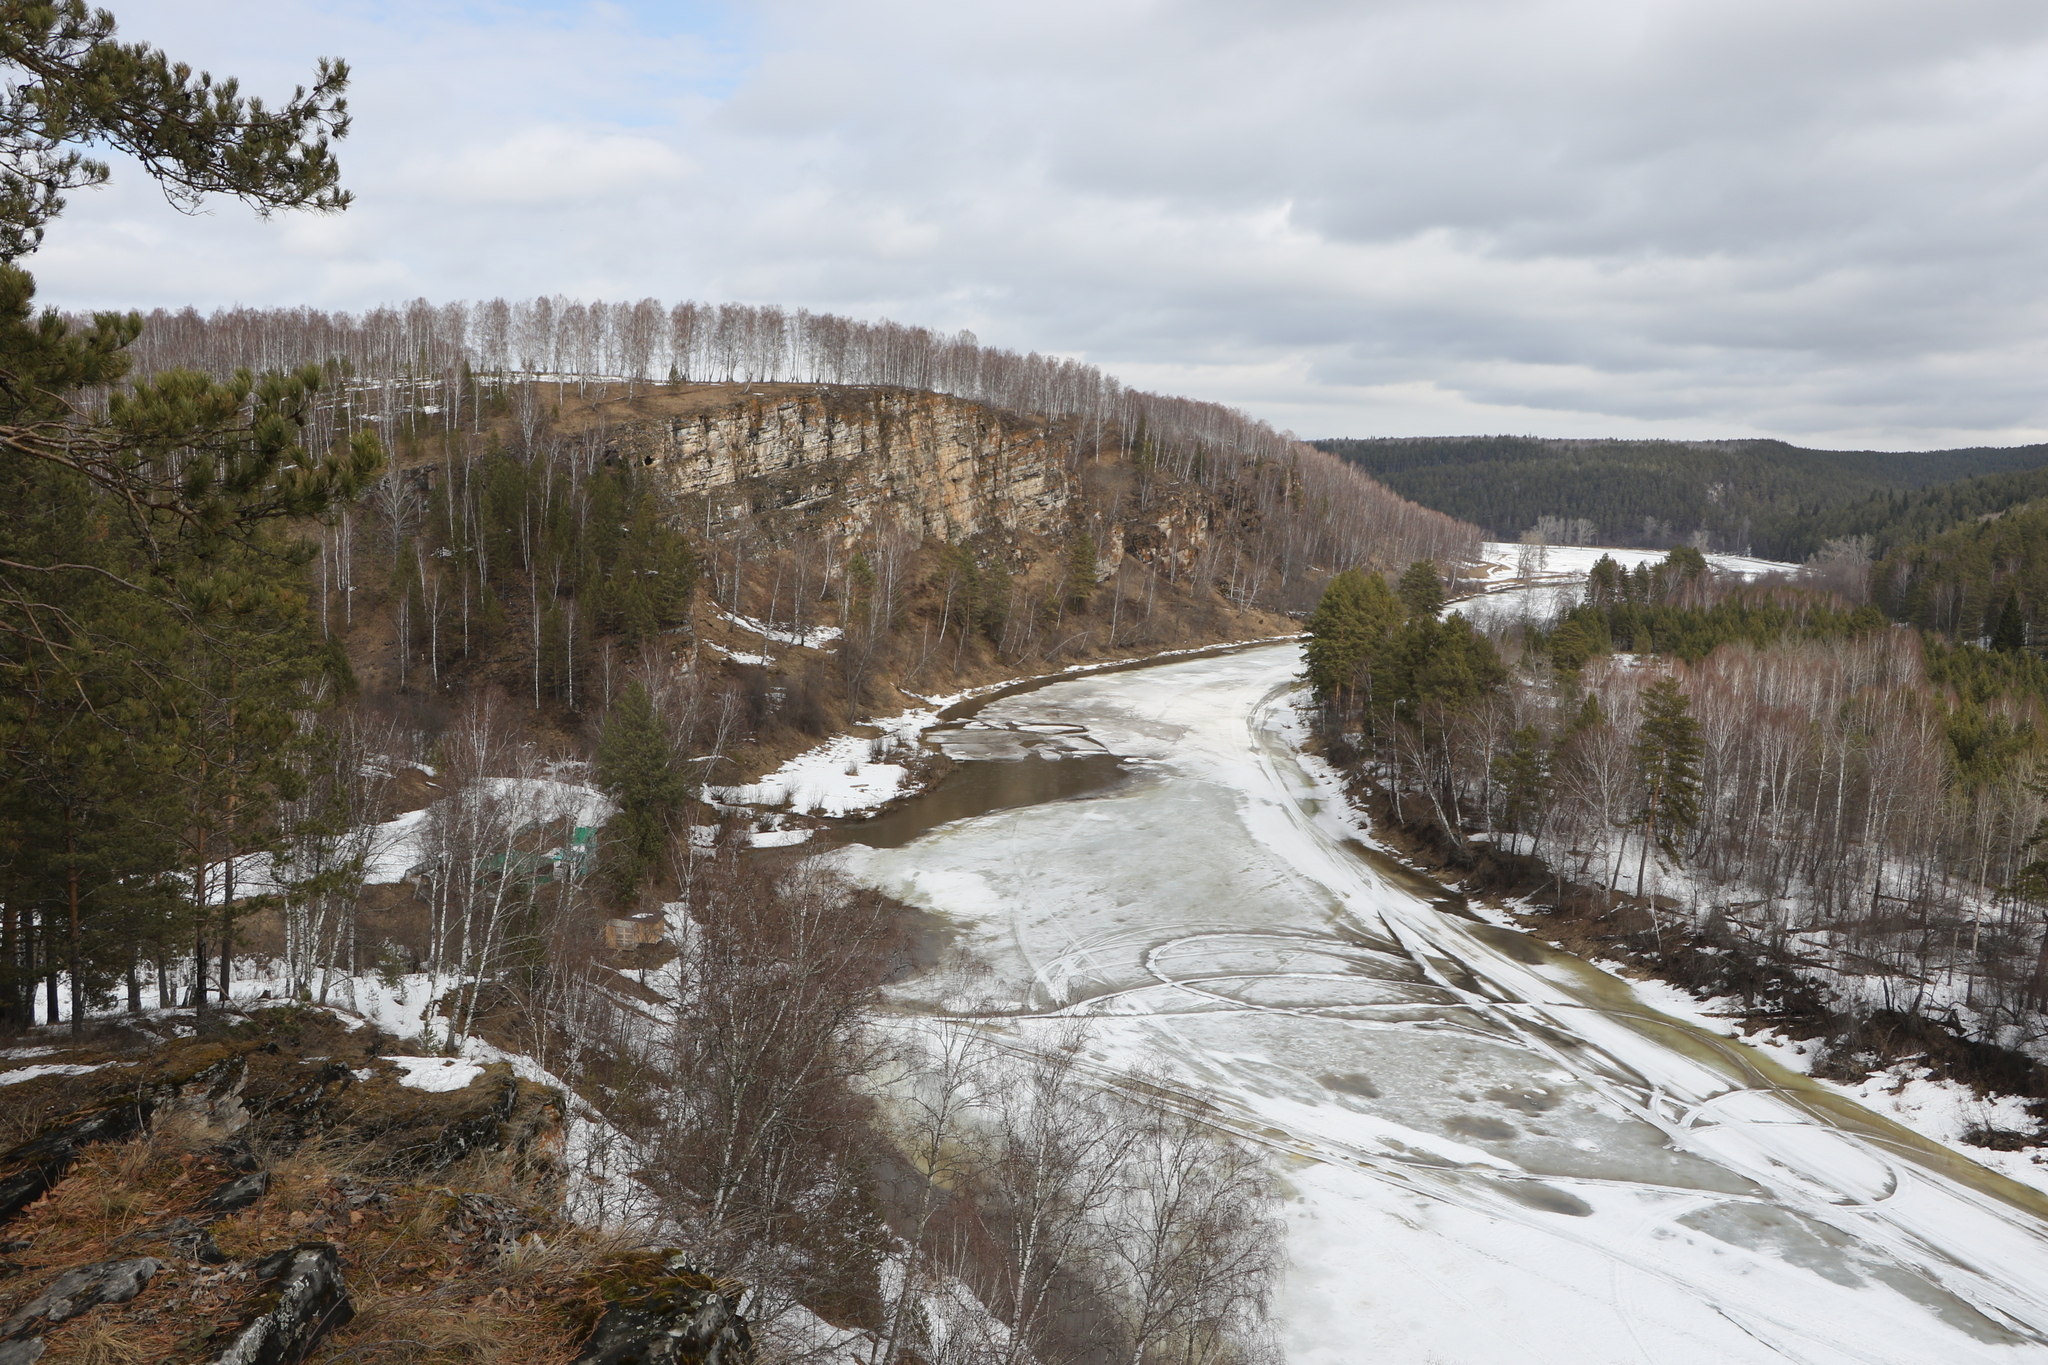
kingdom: Plantae
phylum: Tracheophyta
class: Pinopsida
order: Pinales
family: Pinaceae
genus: Pinus
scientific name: Pinus sylvestris
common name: Scots pine
